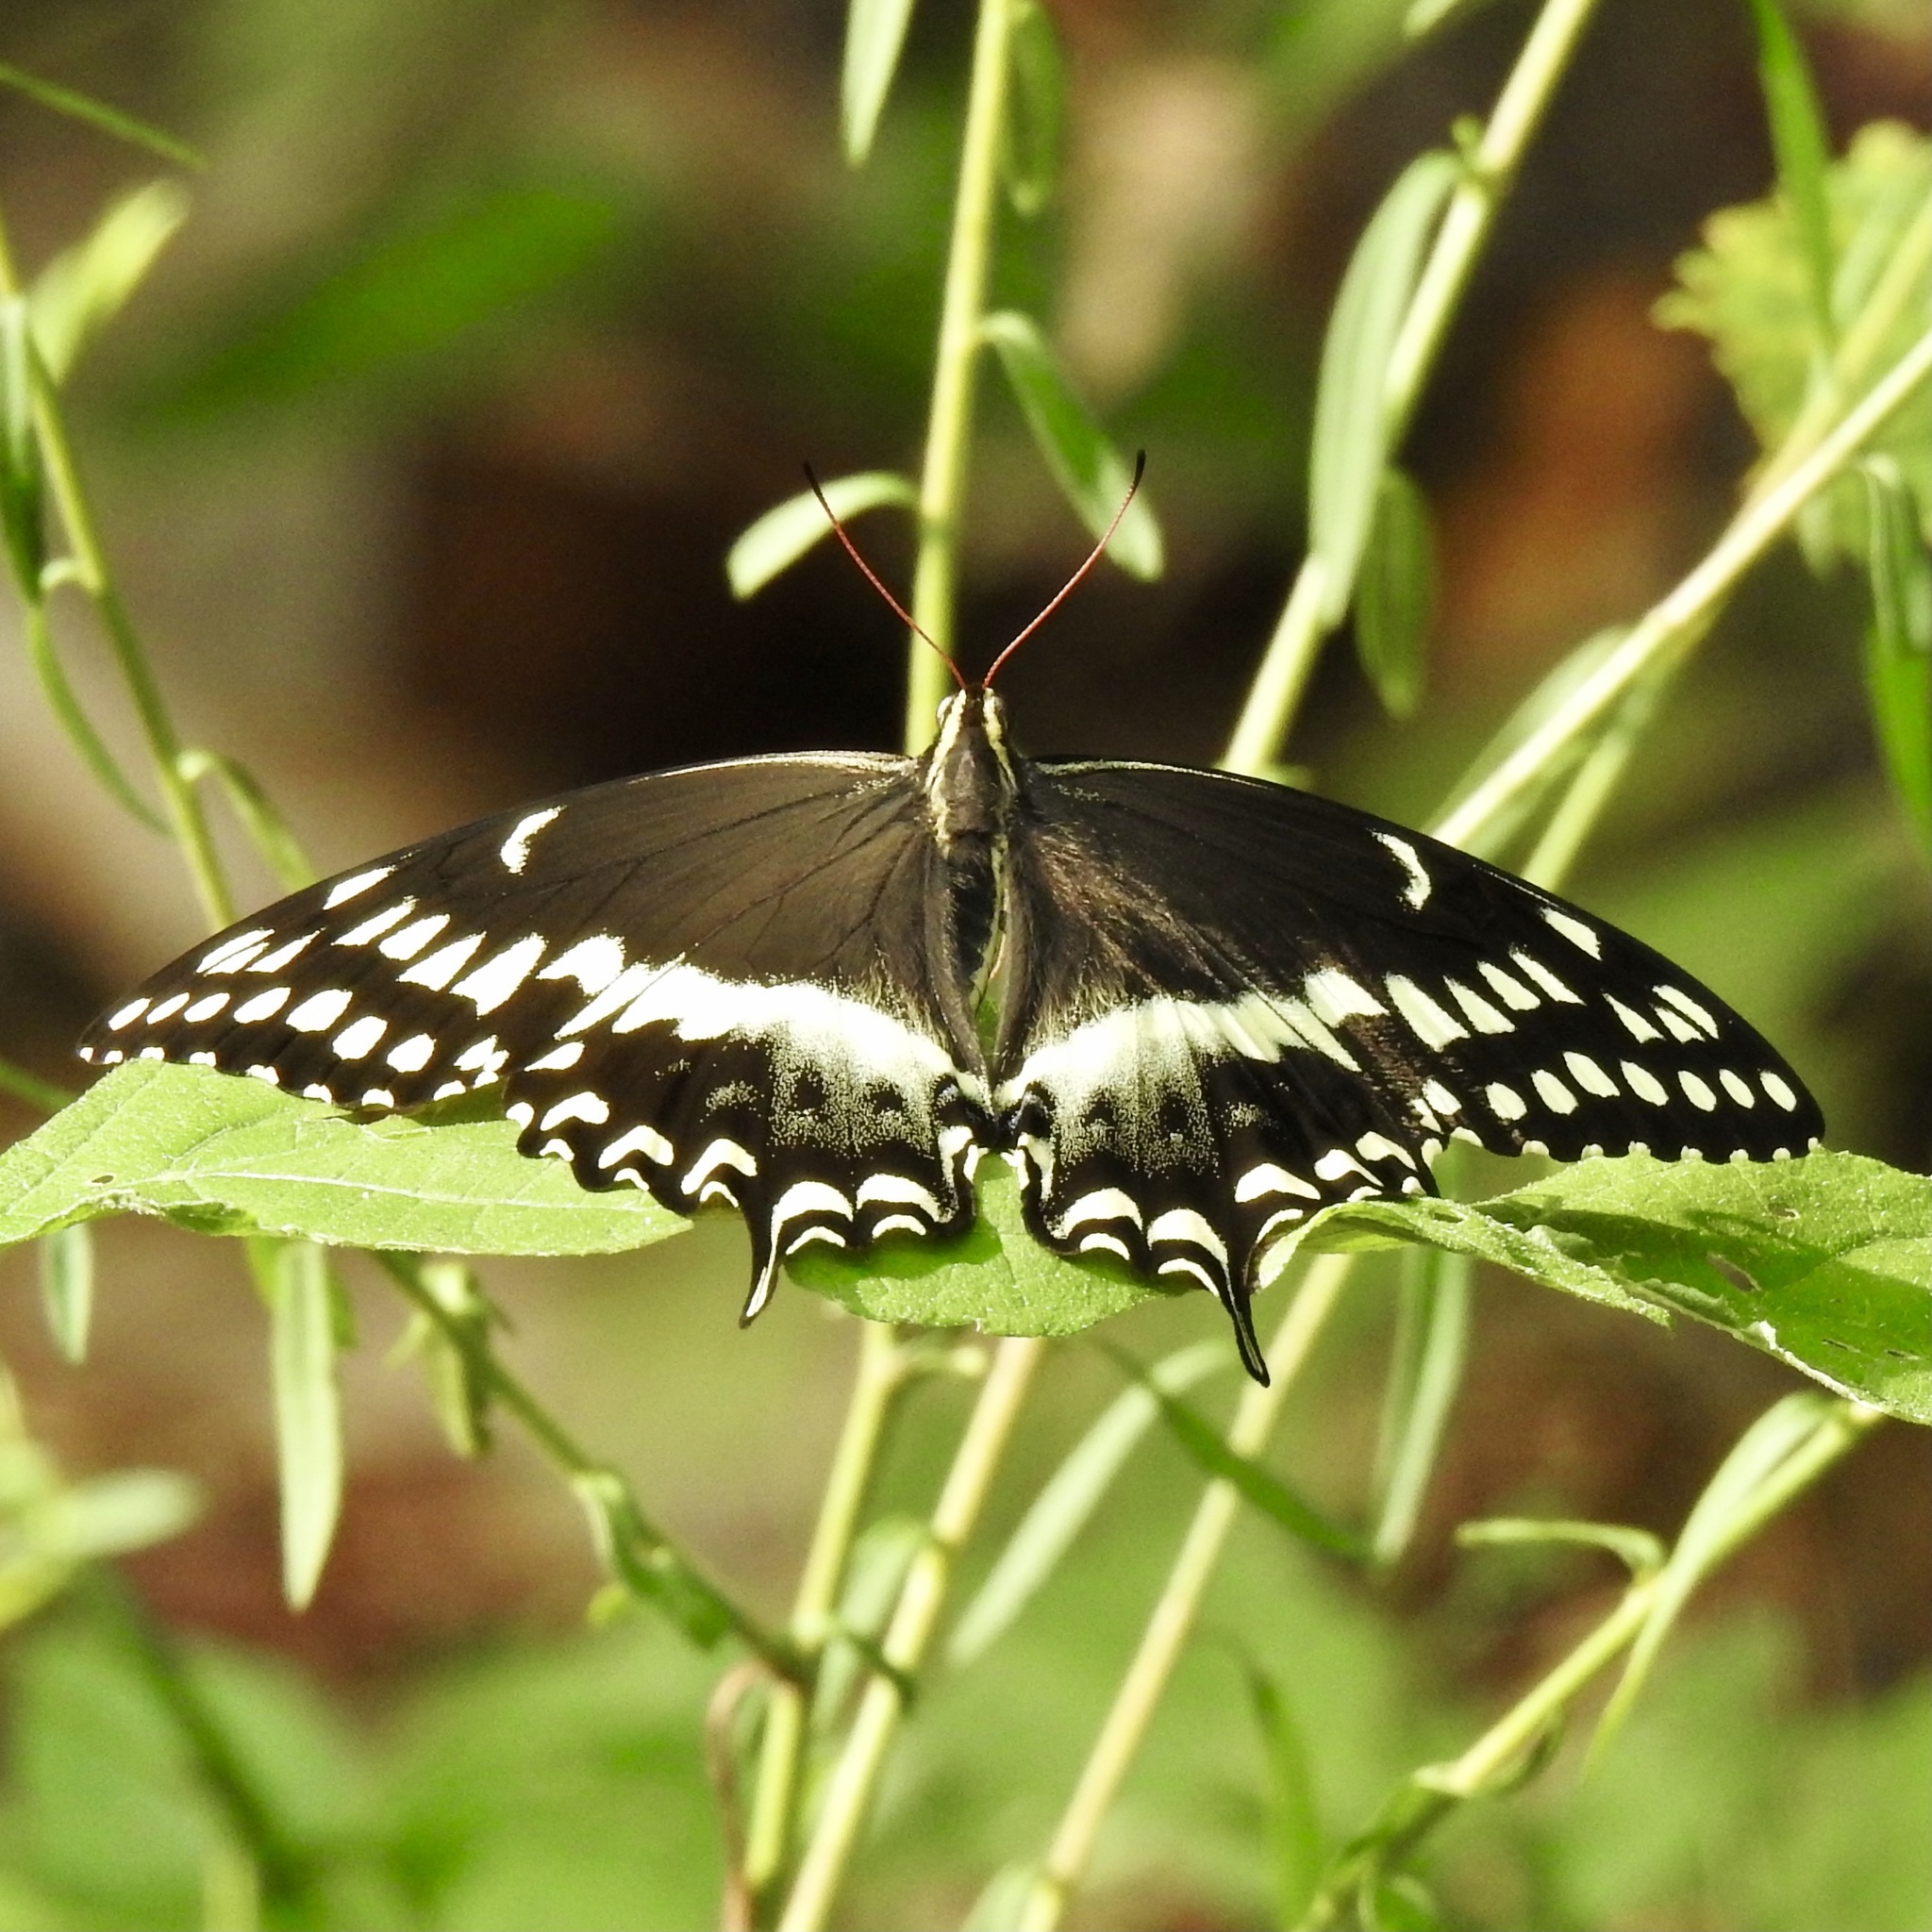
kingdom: Animalia
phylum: Arthropoda
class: Insecta
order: Lepidoptera
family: Papilionidae
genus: Papilio
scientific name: Papilio palamedes
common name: Palamedes swallowtail
